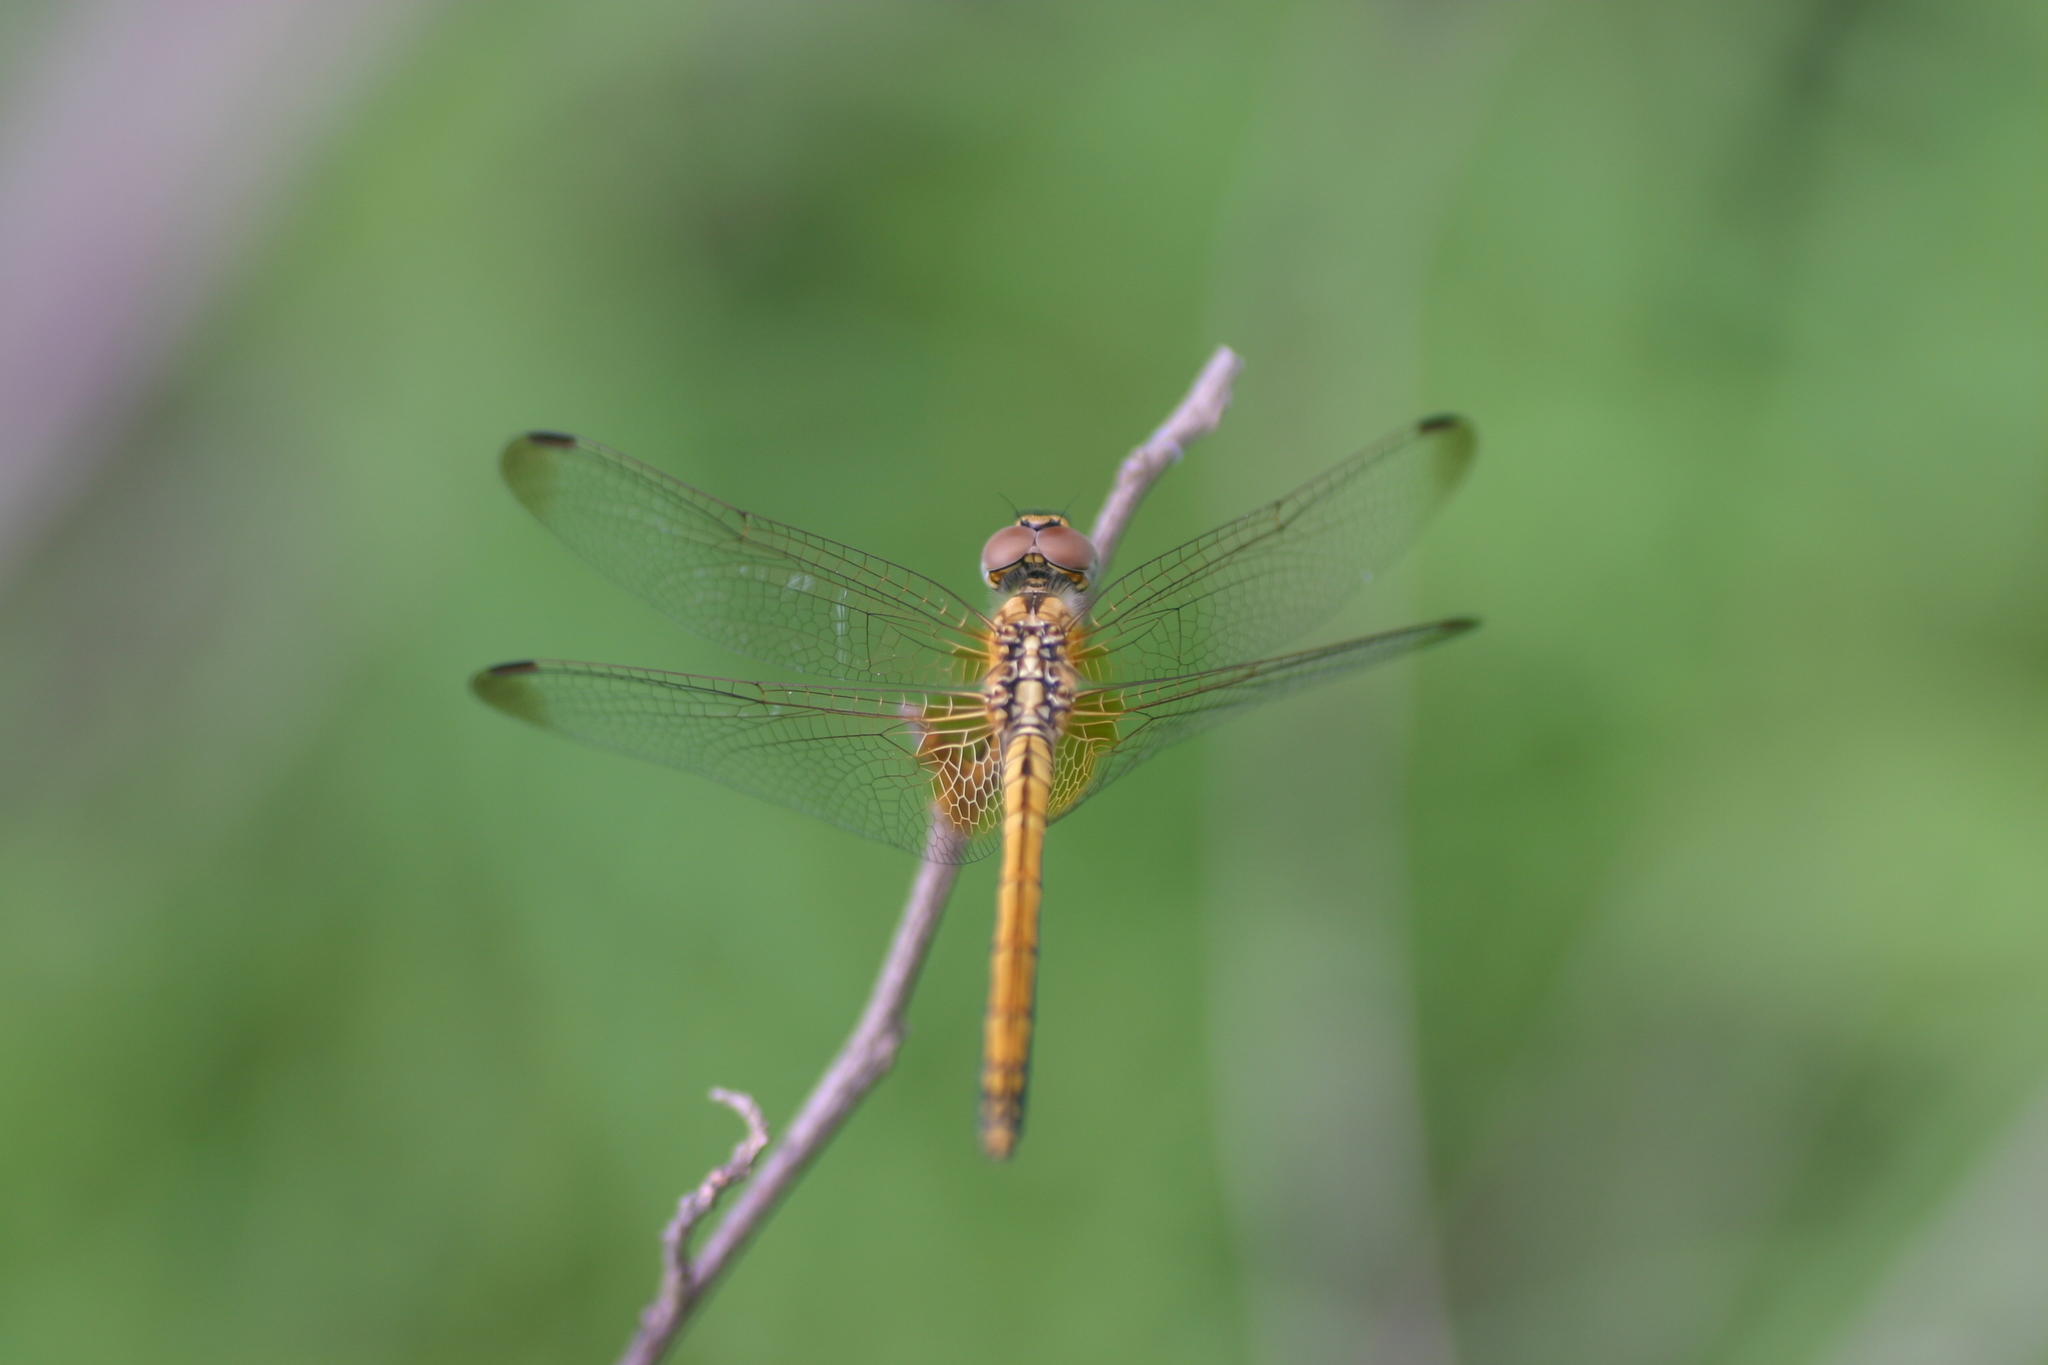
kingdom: Animalia
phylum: Arthropoda
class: Insecta
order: Odonata
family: Libellulidae
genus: Trithemis
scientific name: Trithemis aurora
